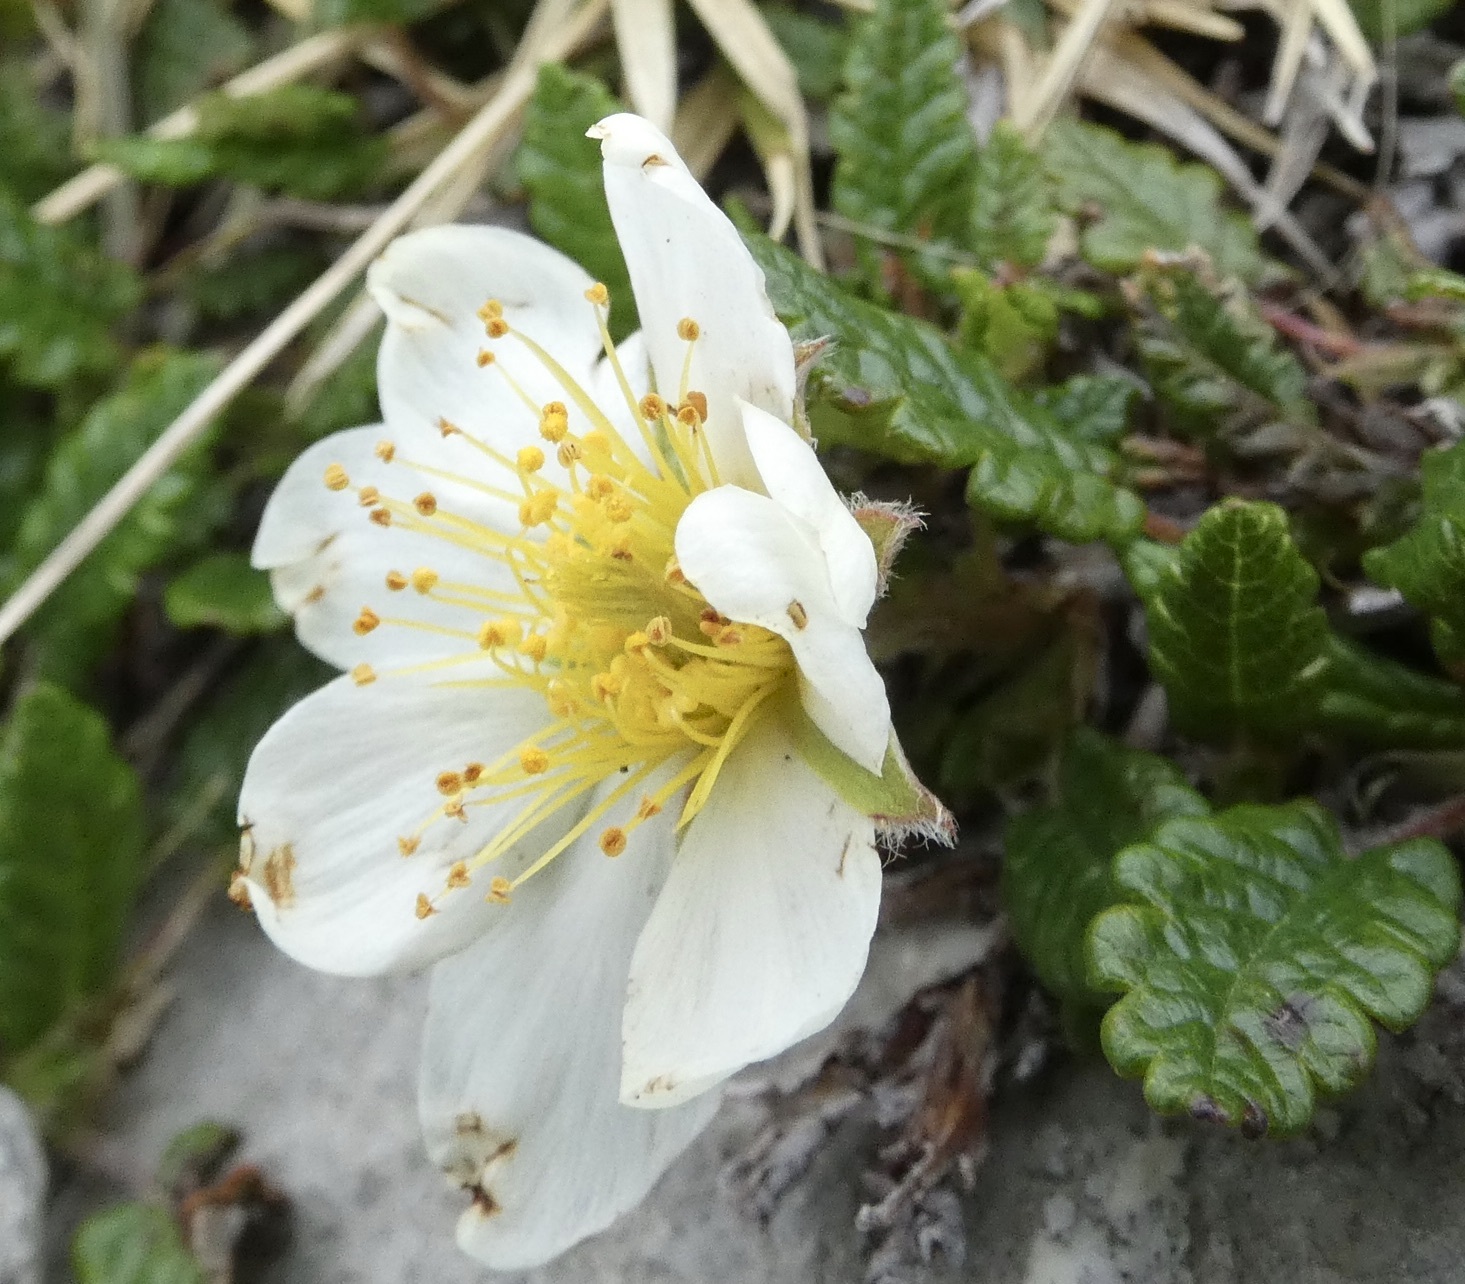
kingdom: Plantae
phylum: Tracheophyta
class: Magnoliopsida
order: Rosales
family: Rosaceae
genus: Dryas
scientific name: Dryas octopetala
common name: Eight-petal mountain-avens
